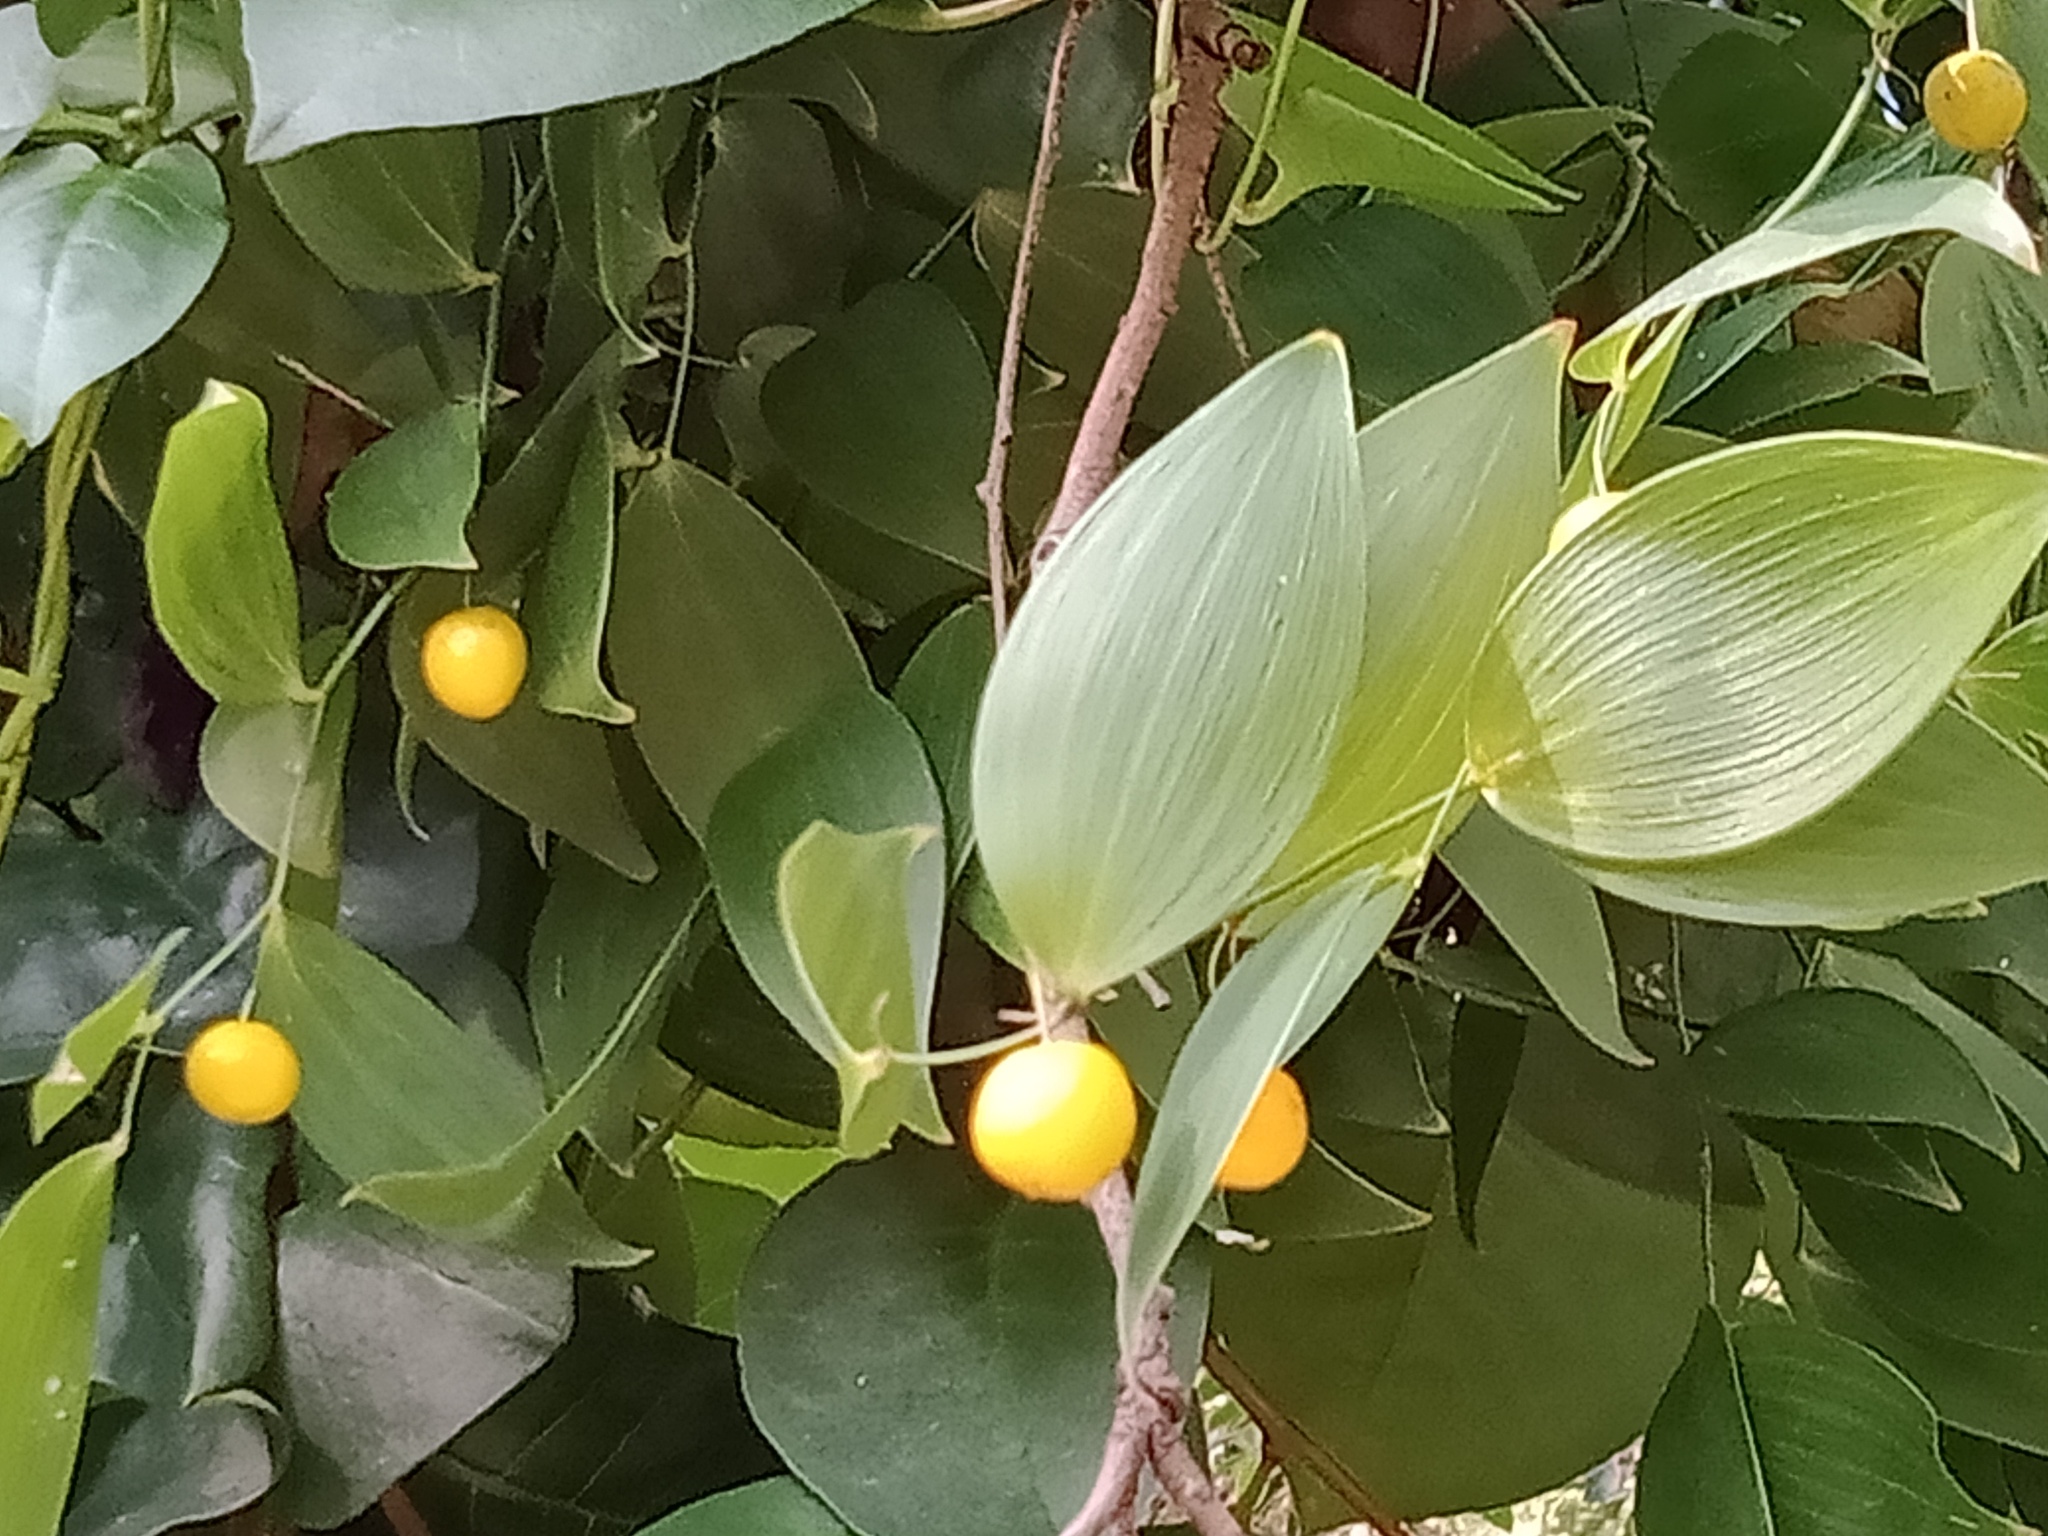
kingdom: Plantae
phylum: Tracheophyta
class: Liliopsida
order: Asparagales
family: Asparagaceae
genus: Eustrephus
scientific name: Eustrephus latifolius
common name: Orangevine
